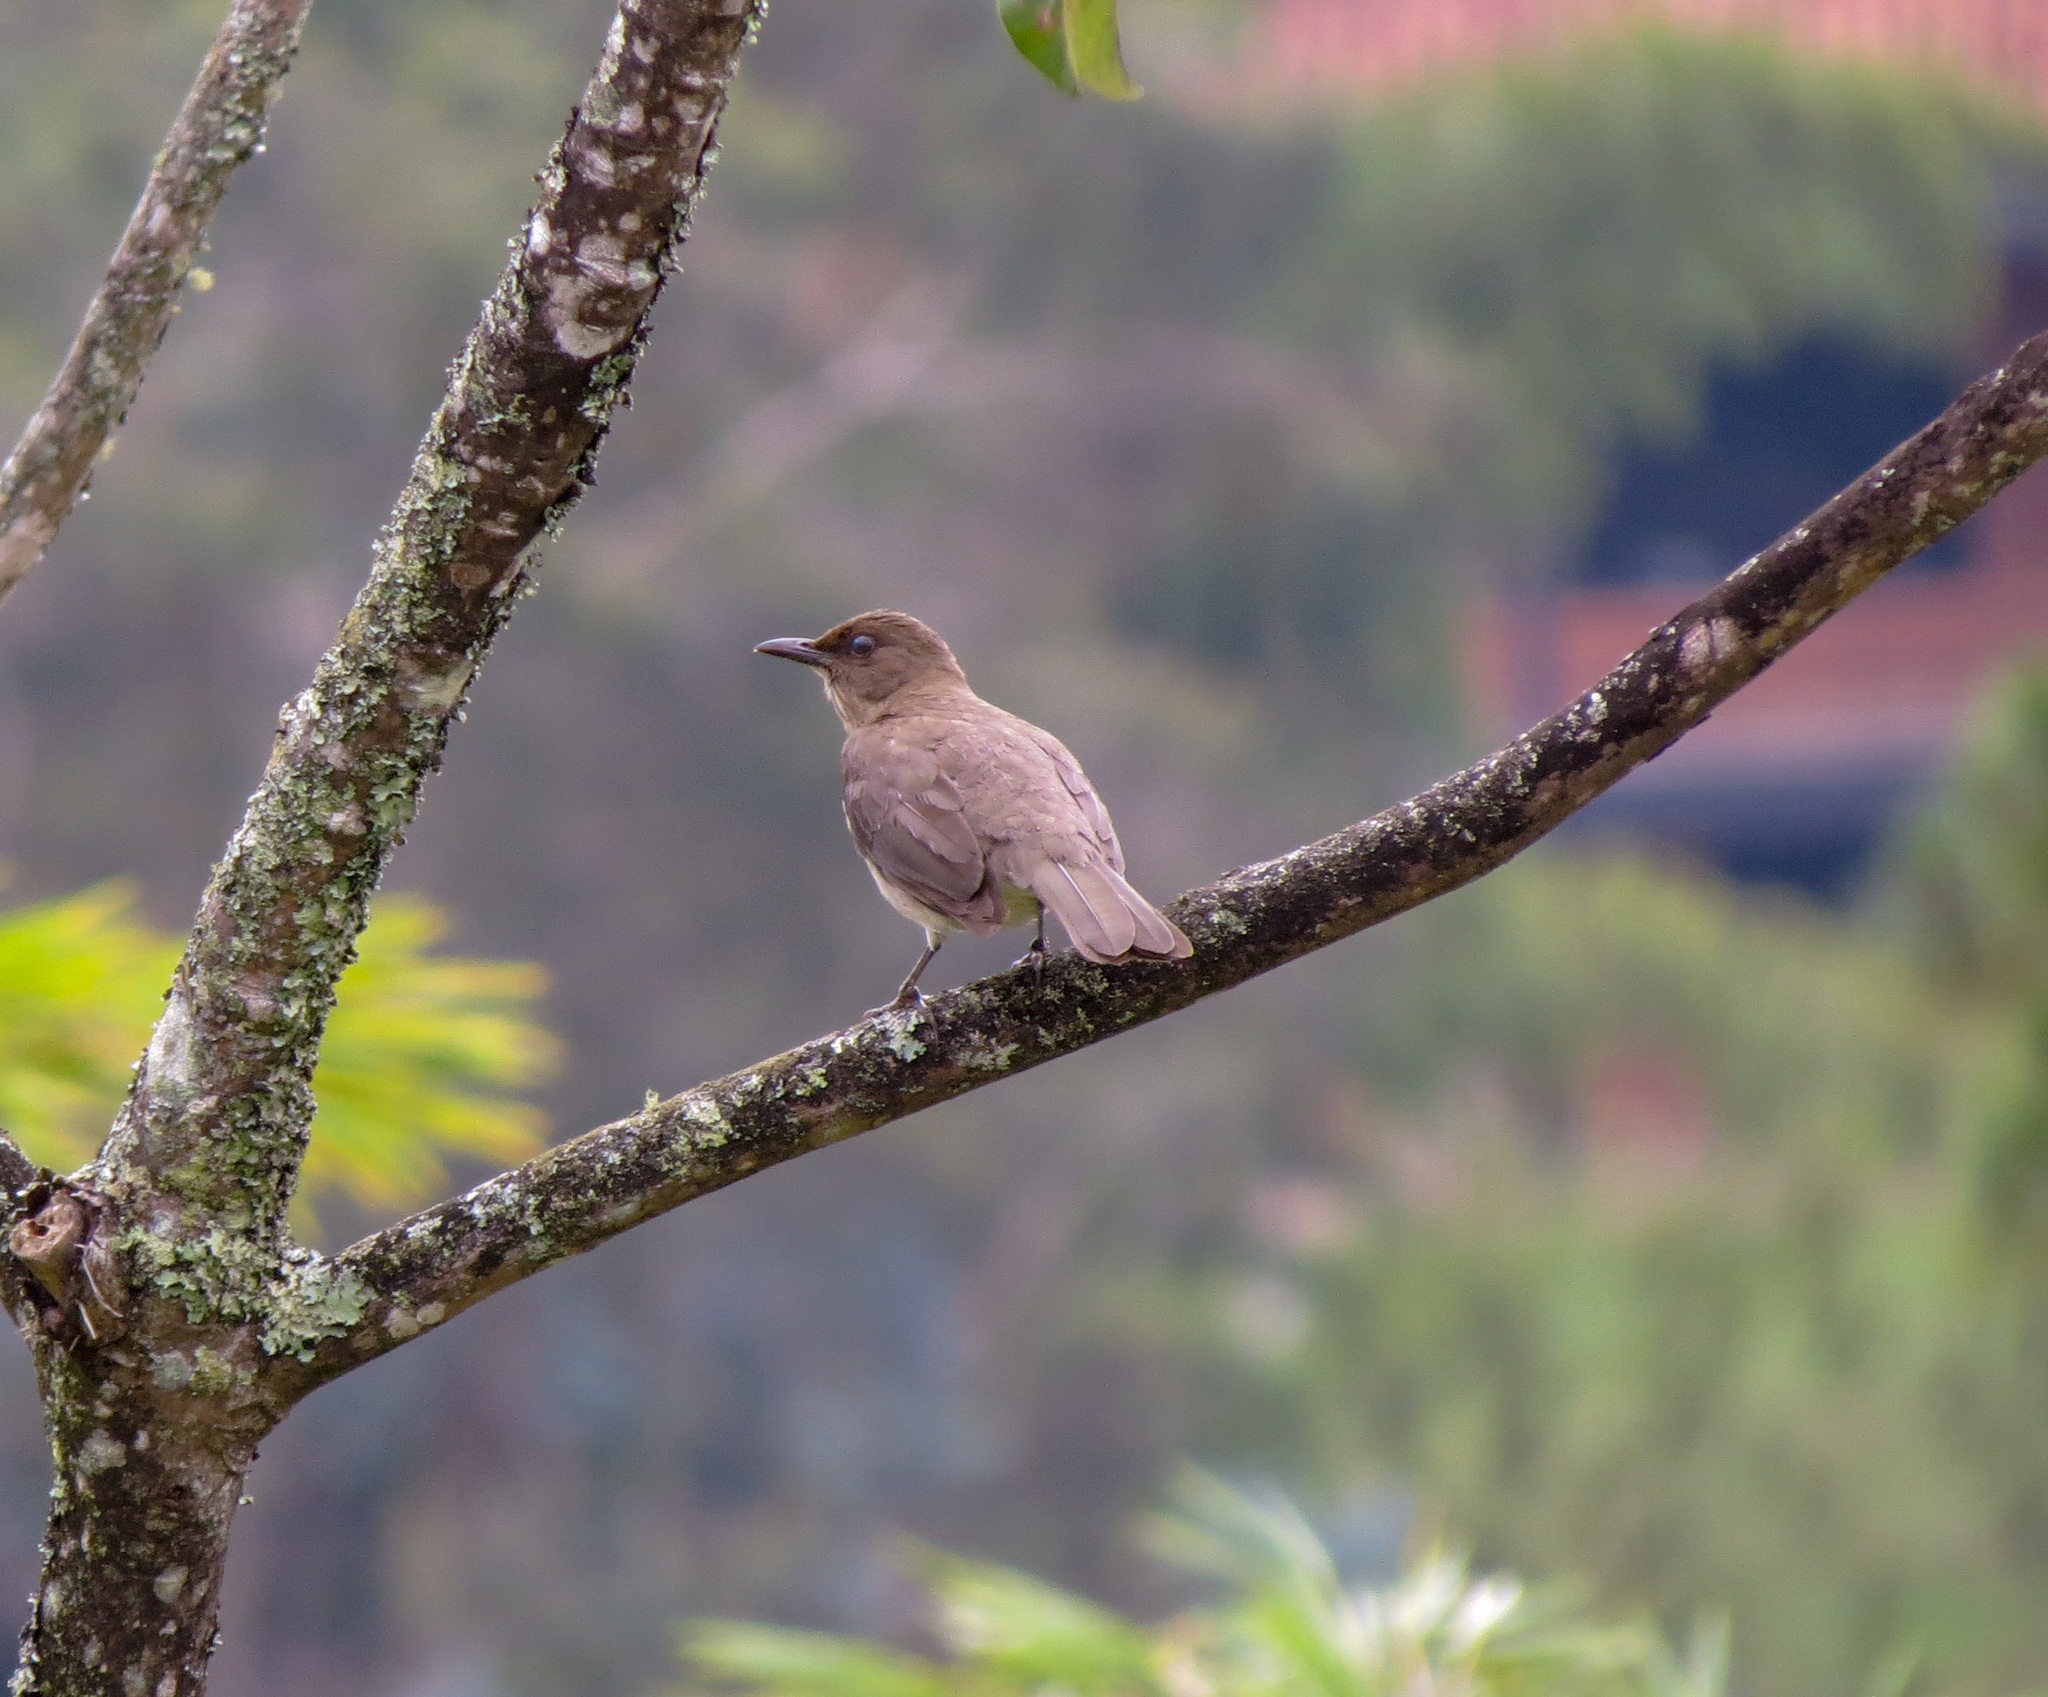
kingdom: Animalia
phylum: Chordata
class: Aves
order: Passeriformes
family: Turdidae
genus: Turdus
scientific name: Turdus ignobilis
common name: Black-billed thrush
